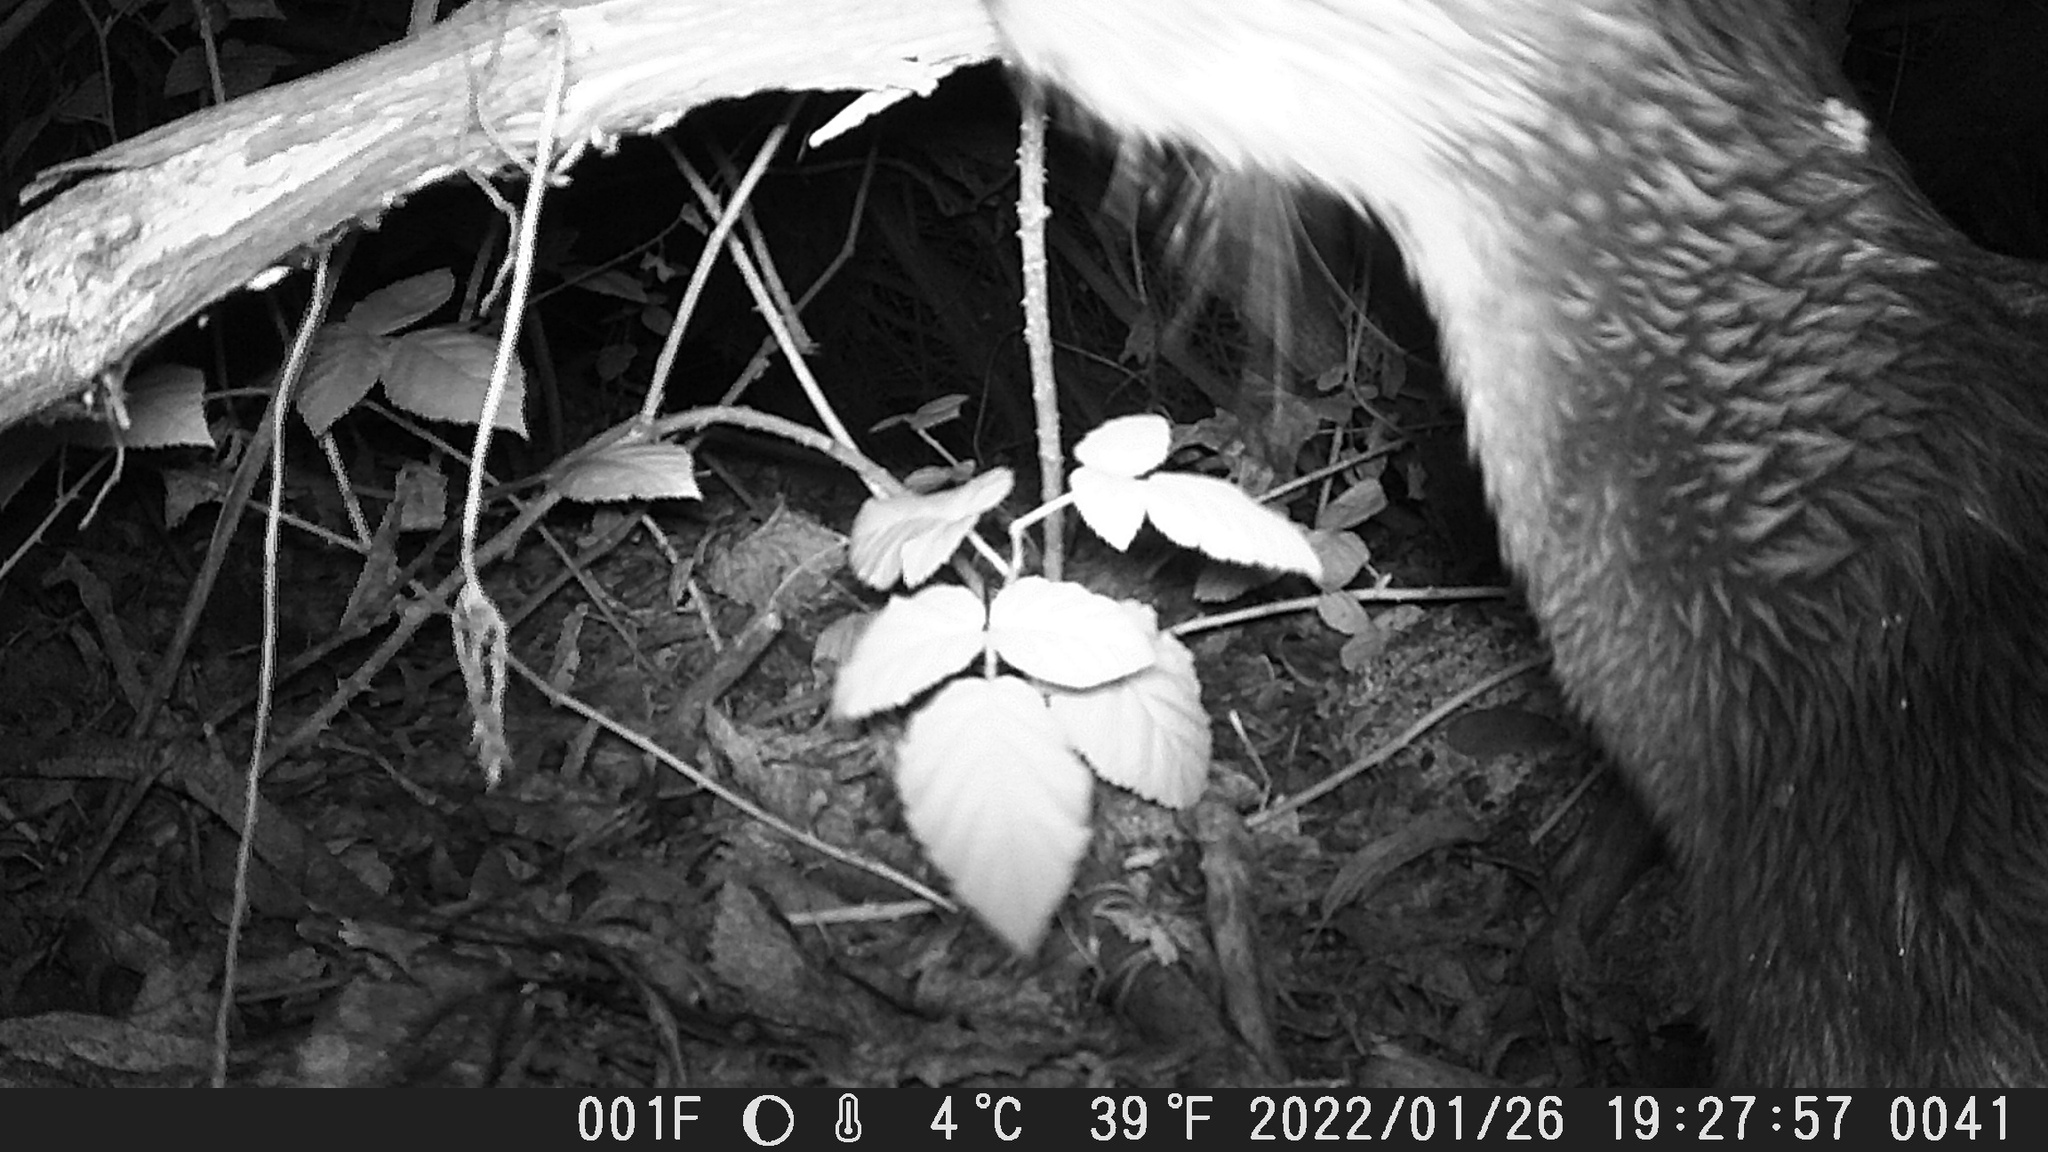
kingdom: Animalia
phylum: Chordata
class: Mammalia
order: Carnivora
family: Mustelidae
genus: Lontra
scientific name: Lontra canadensis
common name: North american river otter
